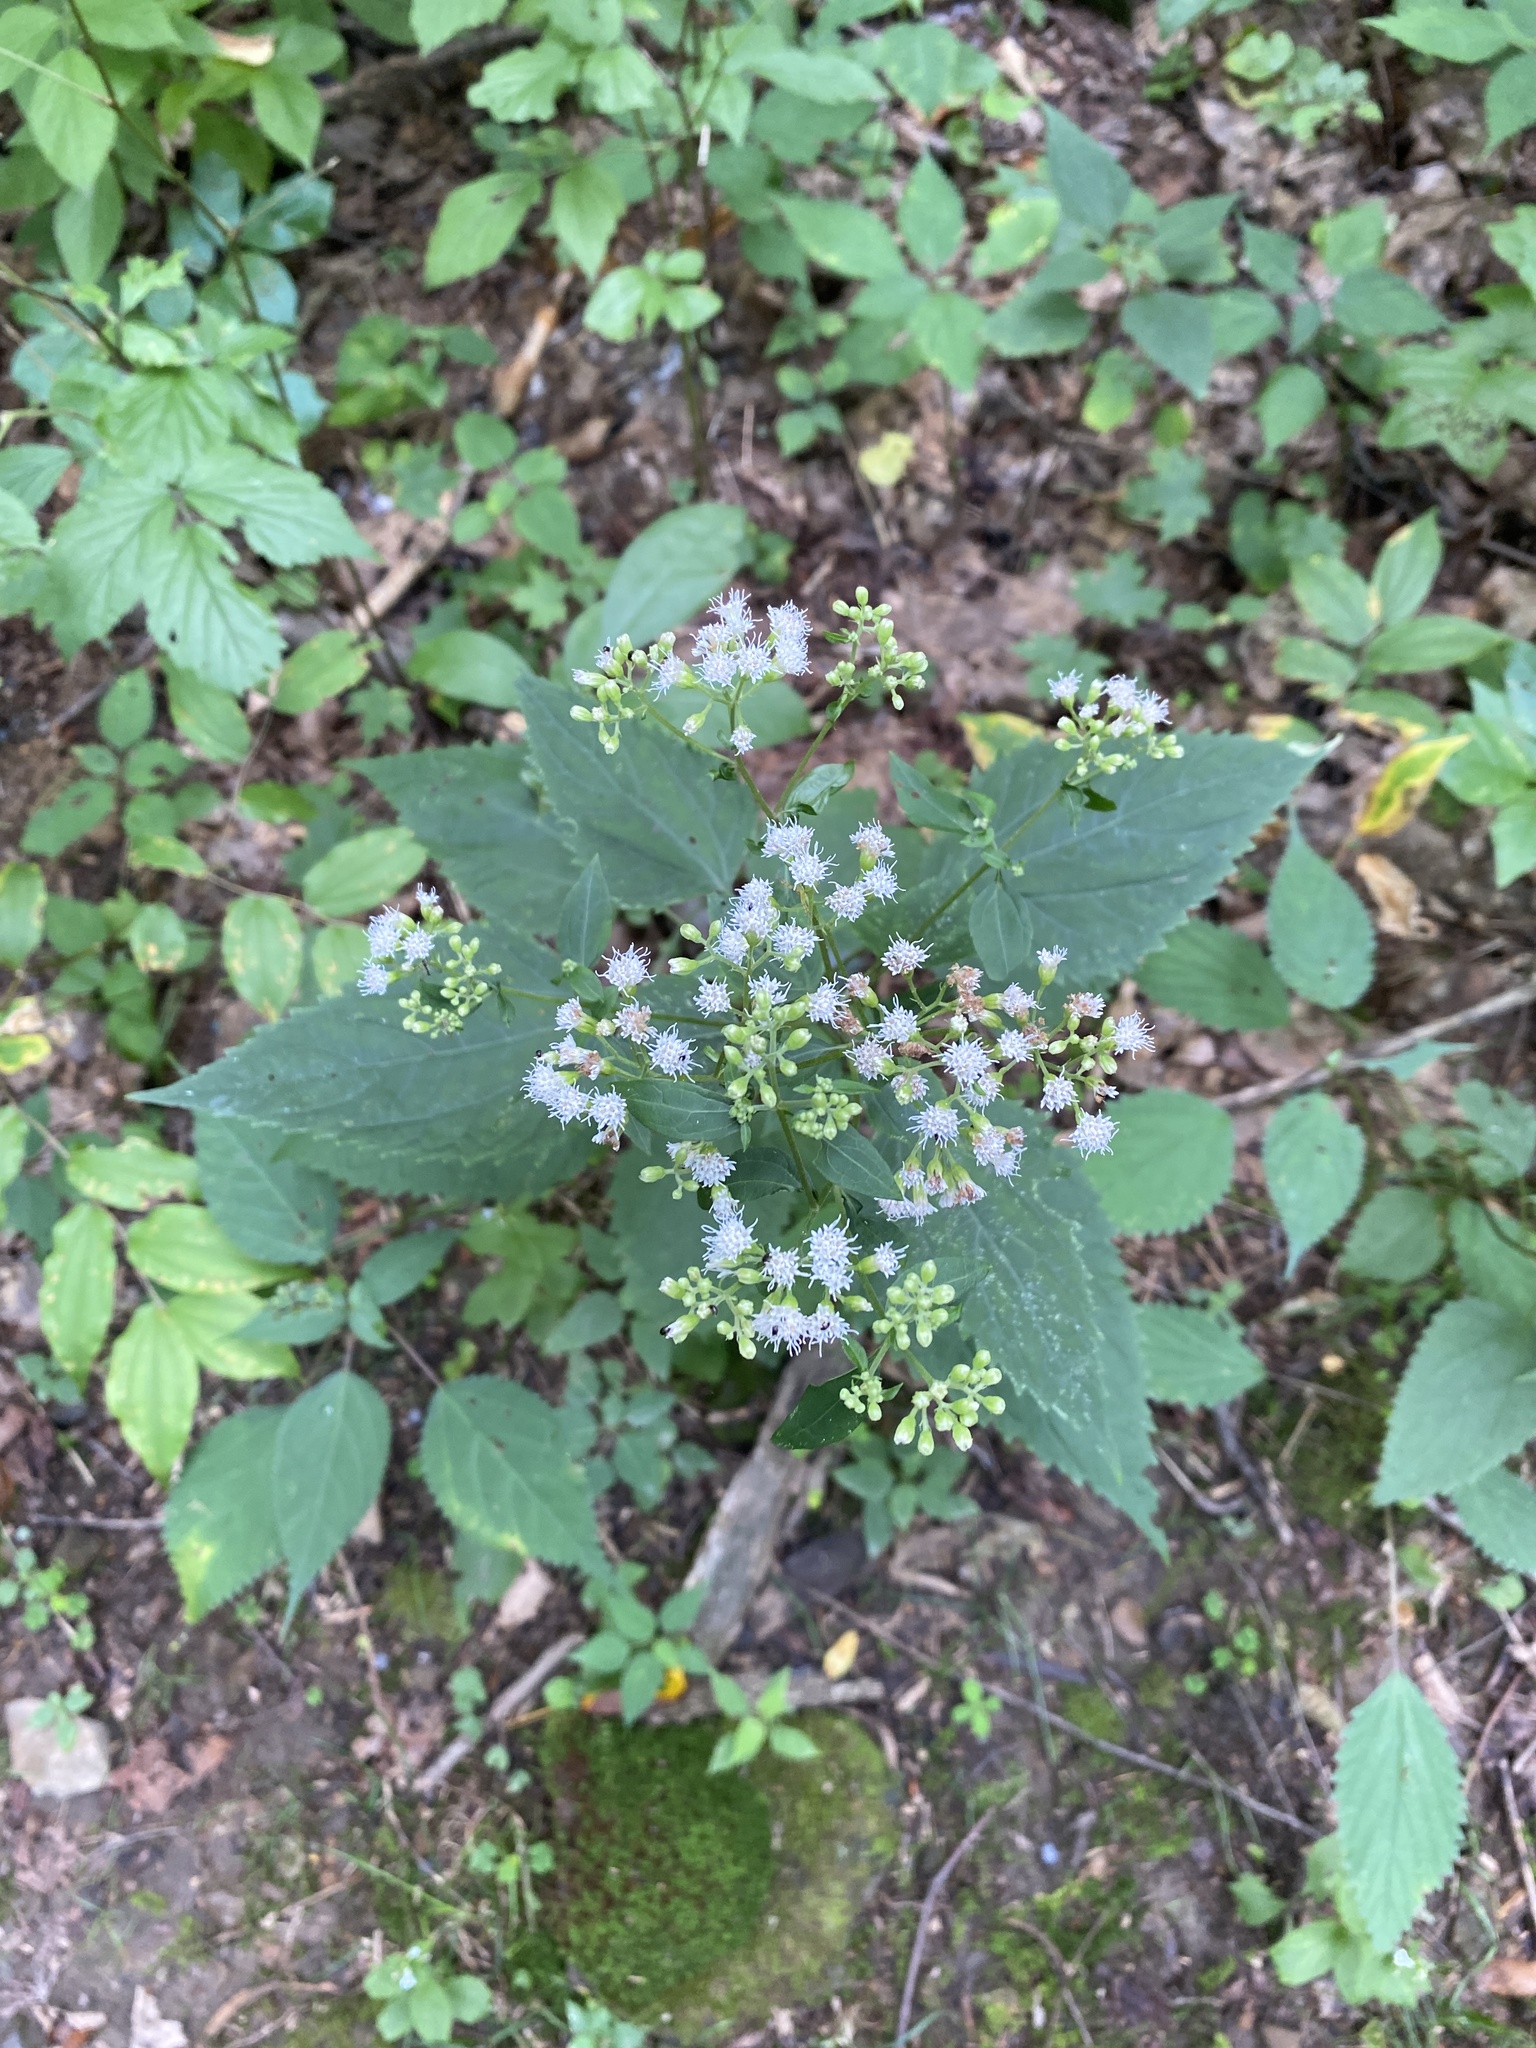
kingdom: Plantae
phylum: Tracheophyta
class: Magnoliopsida
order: Asterales
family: Asteraceae
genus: Ageratina
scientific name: Ageratina altissima
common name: White snakeroot
